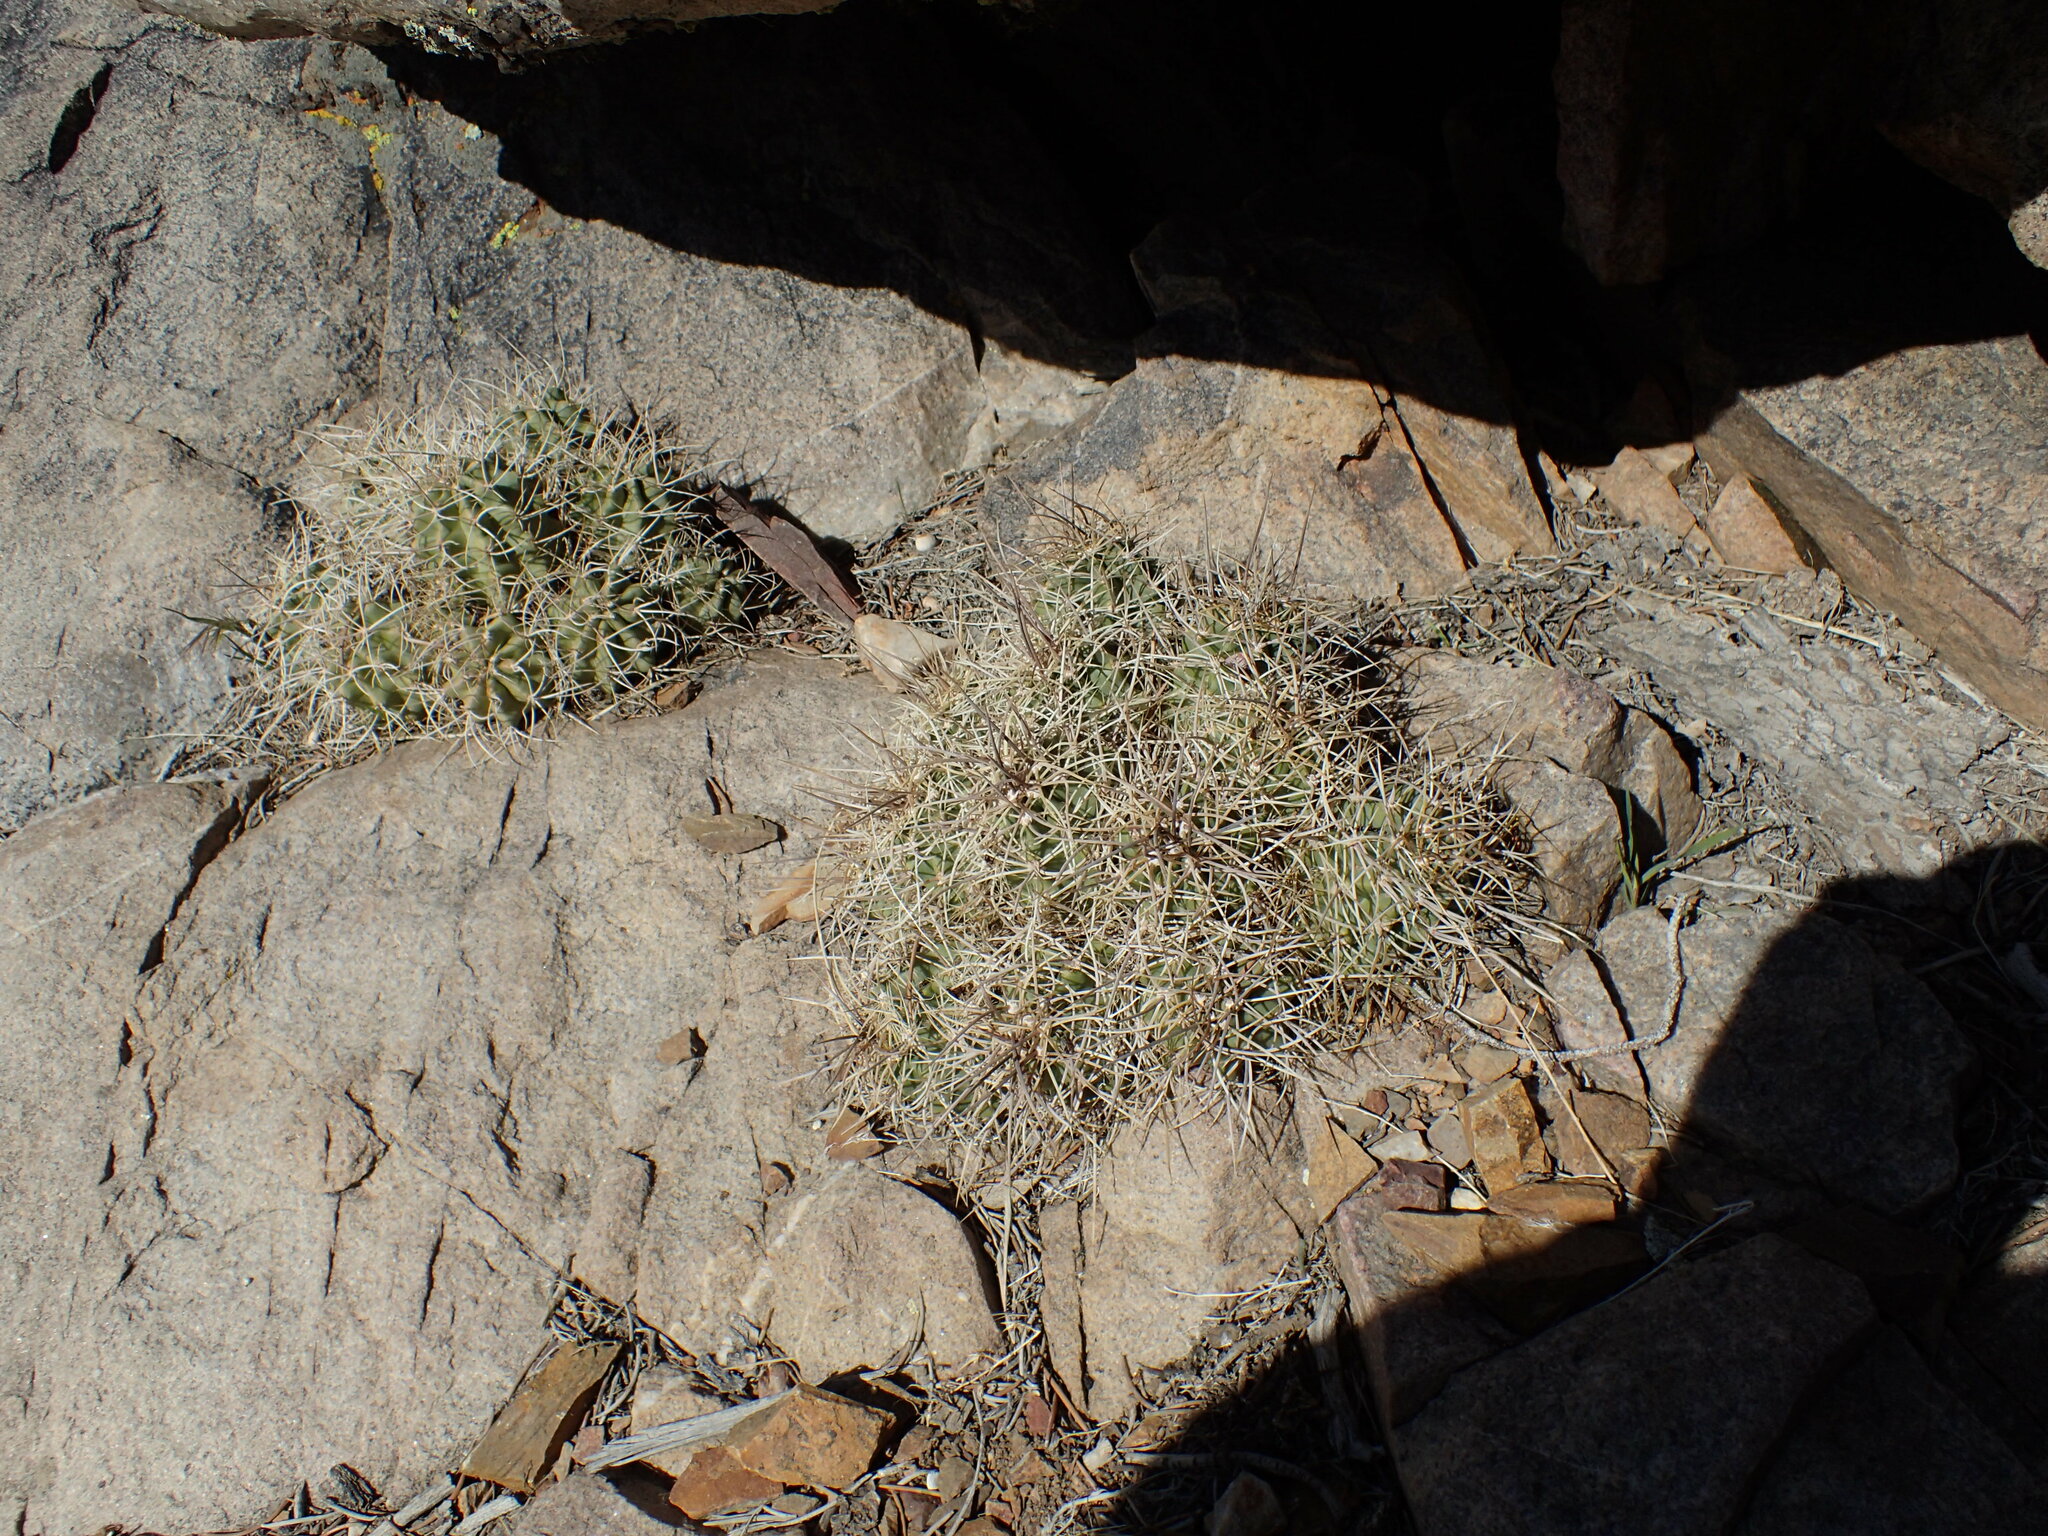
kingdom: Plantae
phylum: Tracheophyta
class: Magnoliopsida
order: Caryophyllales
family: Cactaceae
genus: Echinocereus
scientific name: Echinocereus triglochidiatus
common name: Claretcup hedgehog
